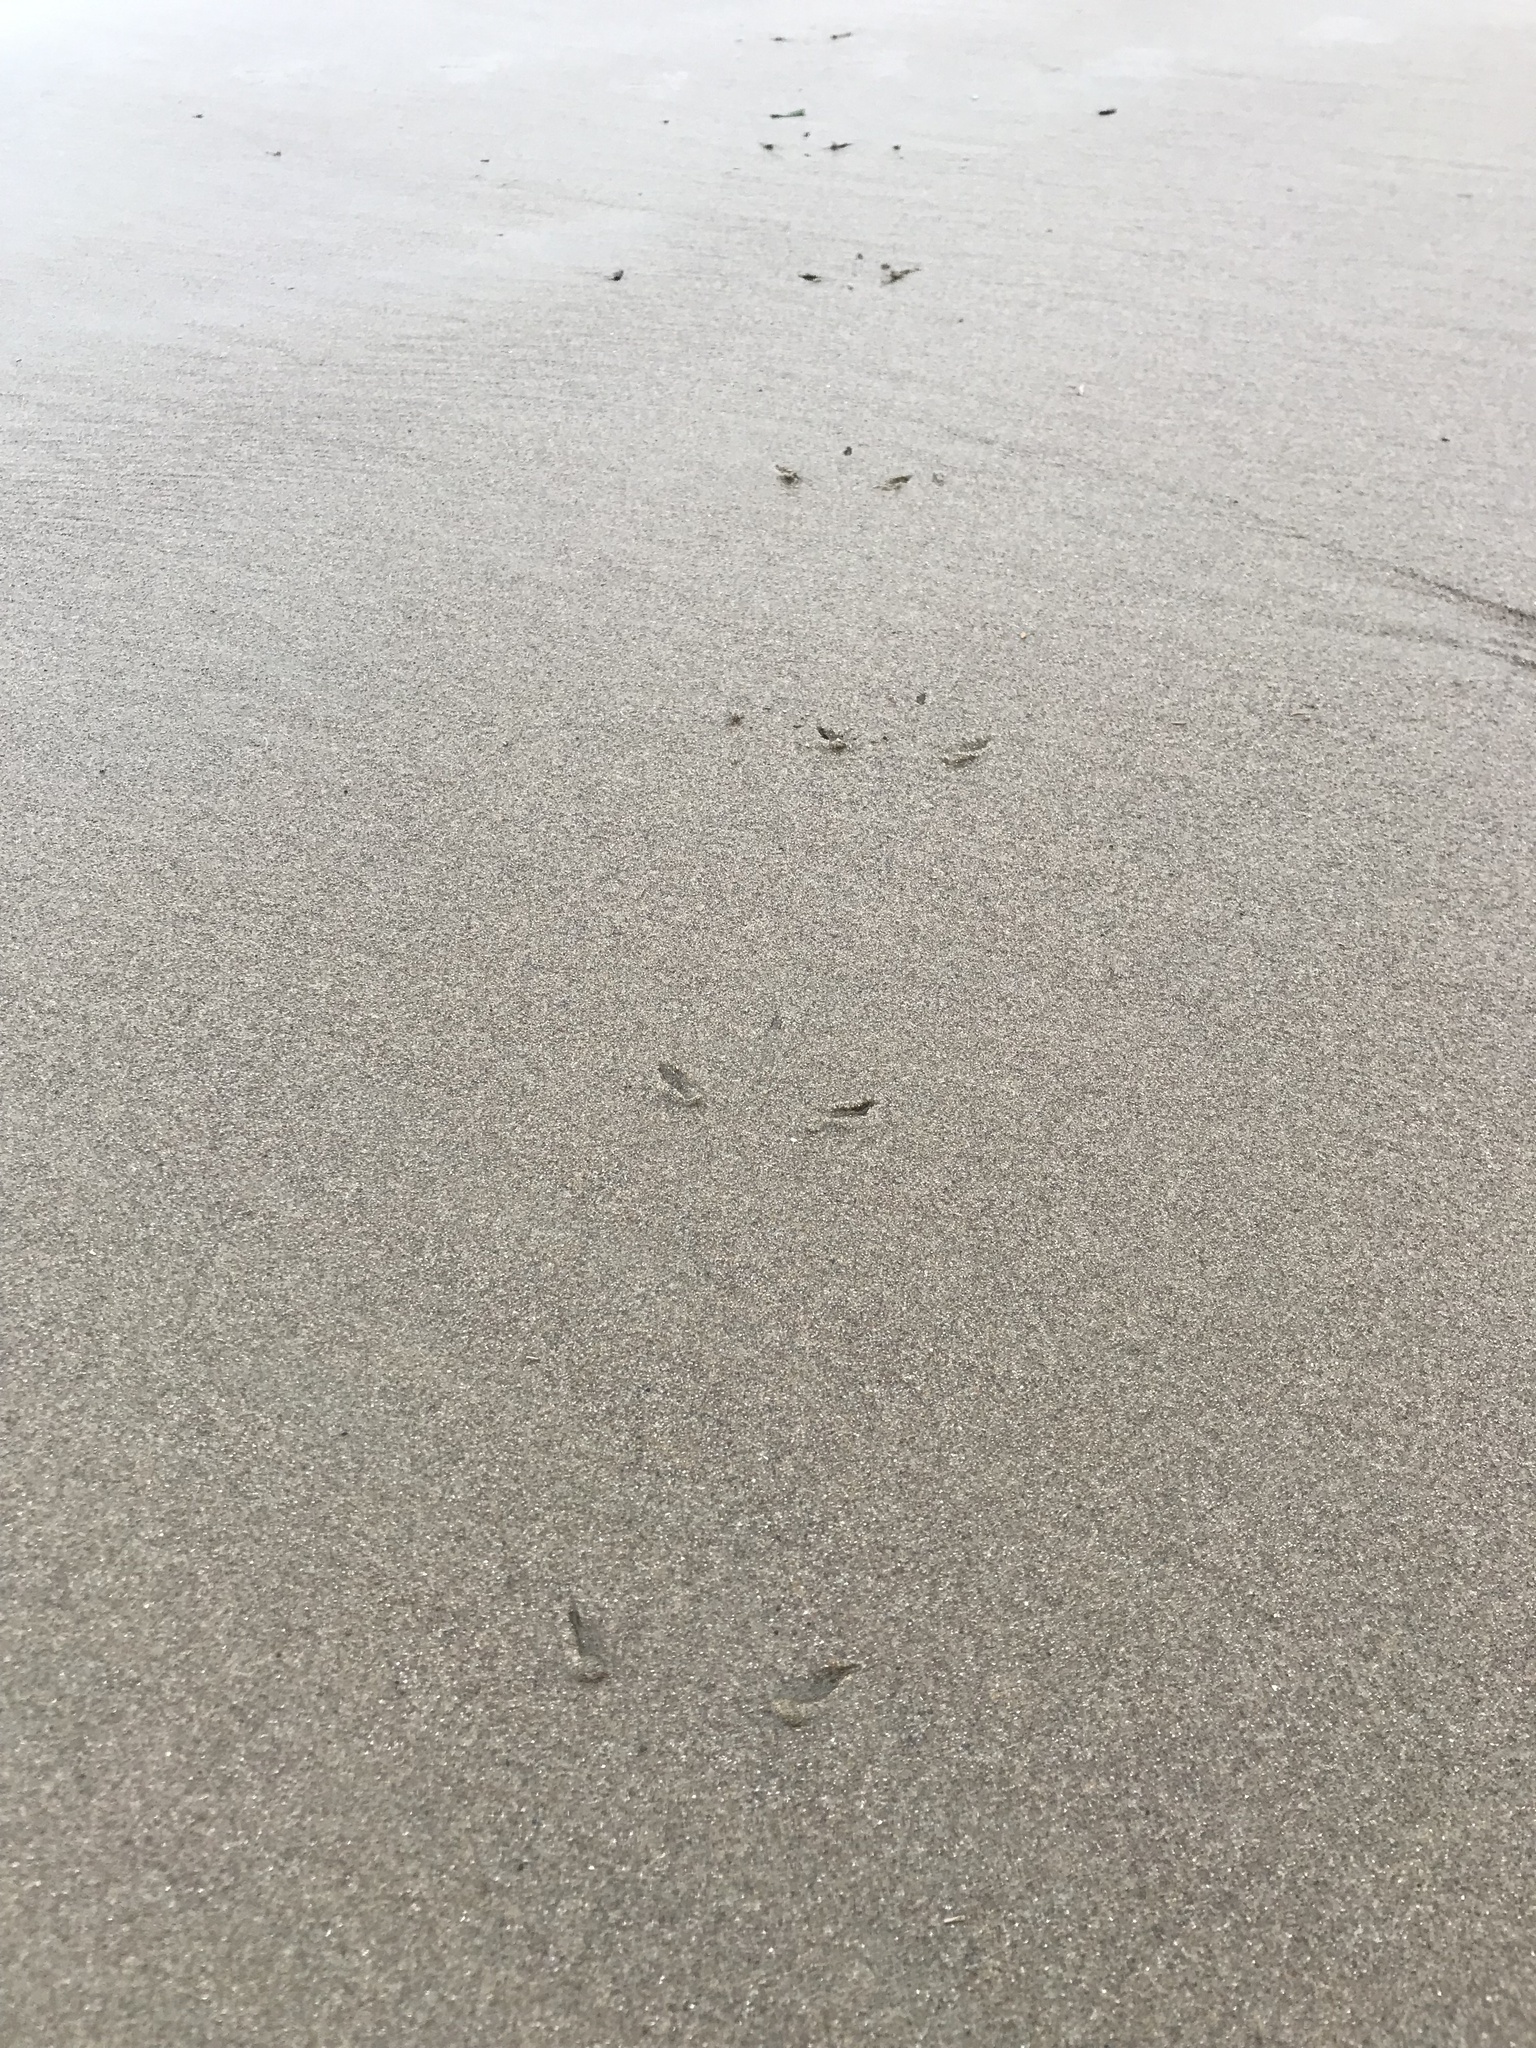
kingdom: Animalia
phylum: Chordata
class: Aves
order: Charadriiformes
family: Scolopacidae
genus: Numenius
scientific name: Numenius phaeopus
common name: Whimbrel
